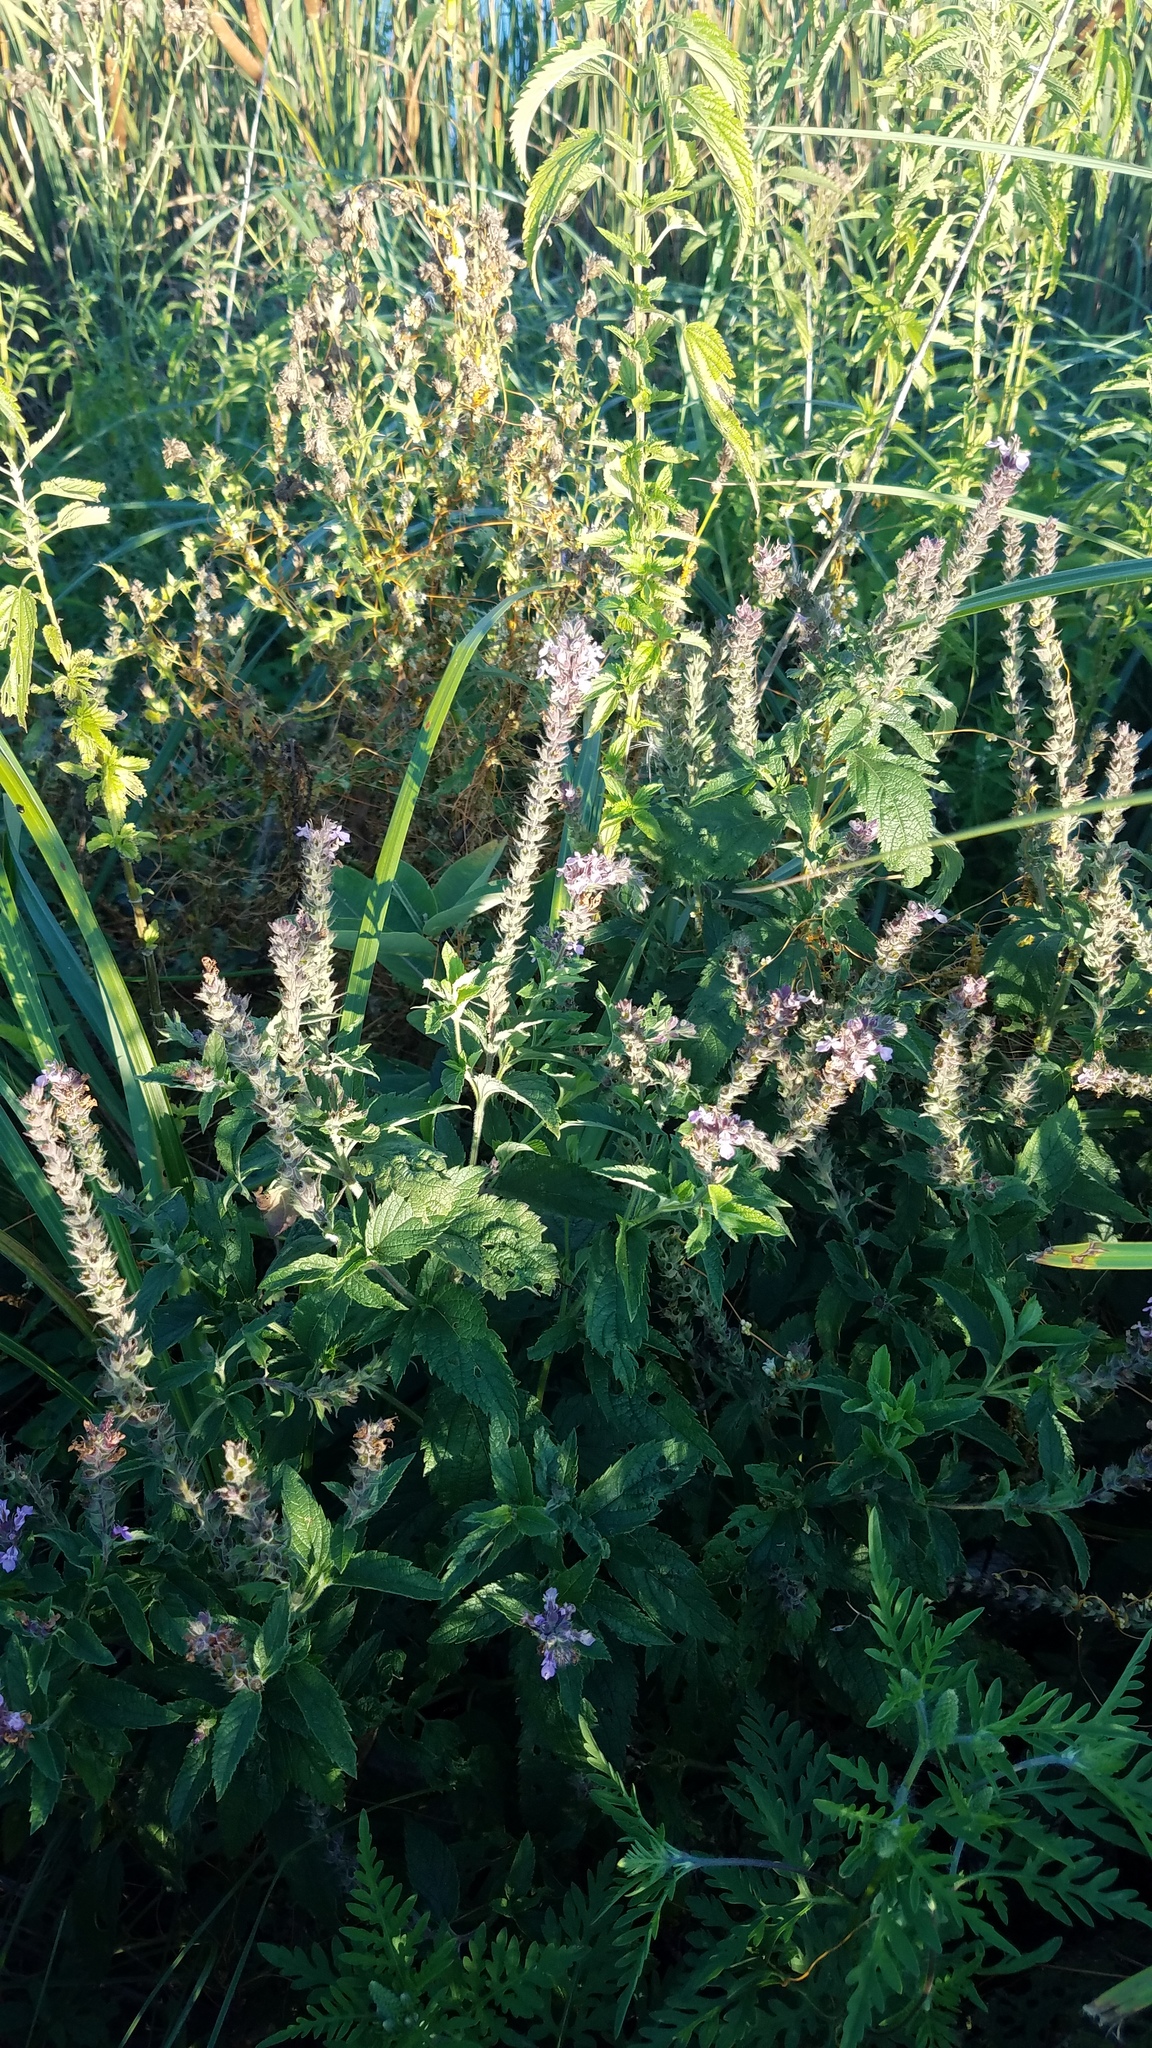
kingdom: Plantae
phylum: Tracheophyta
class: Magnoliopsida
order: Lamiales
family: Lamiaceae
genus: Teucrium
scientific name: Teucrium canadense
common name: American germander
